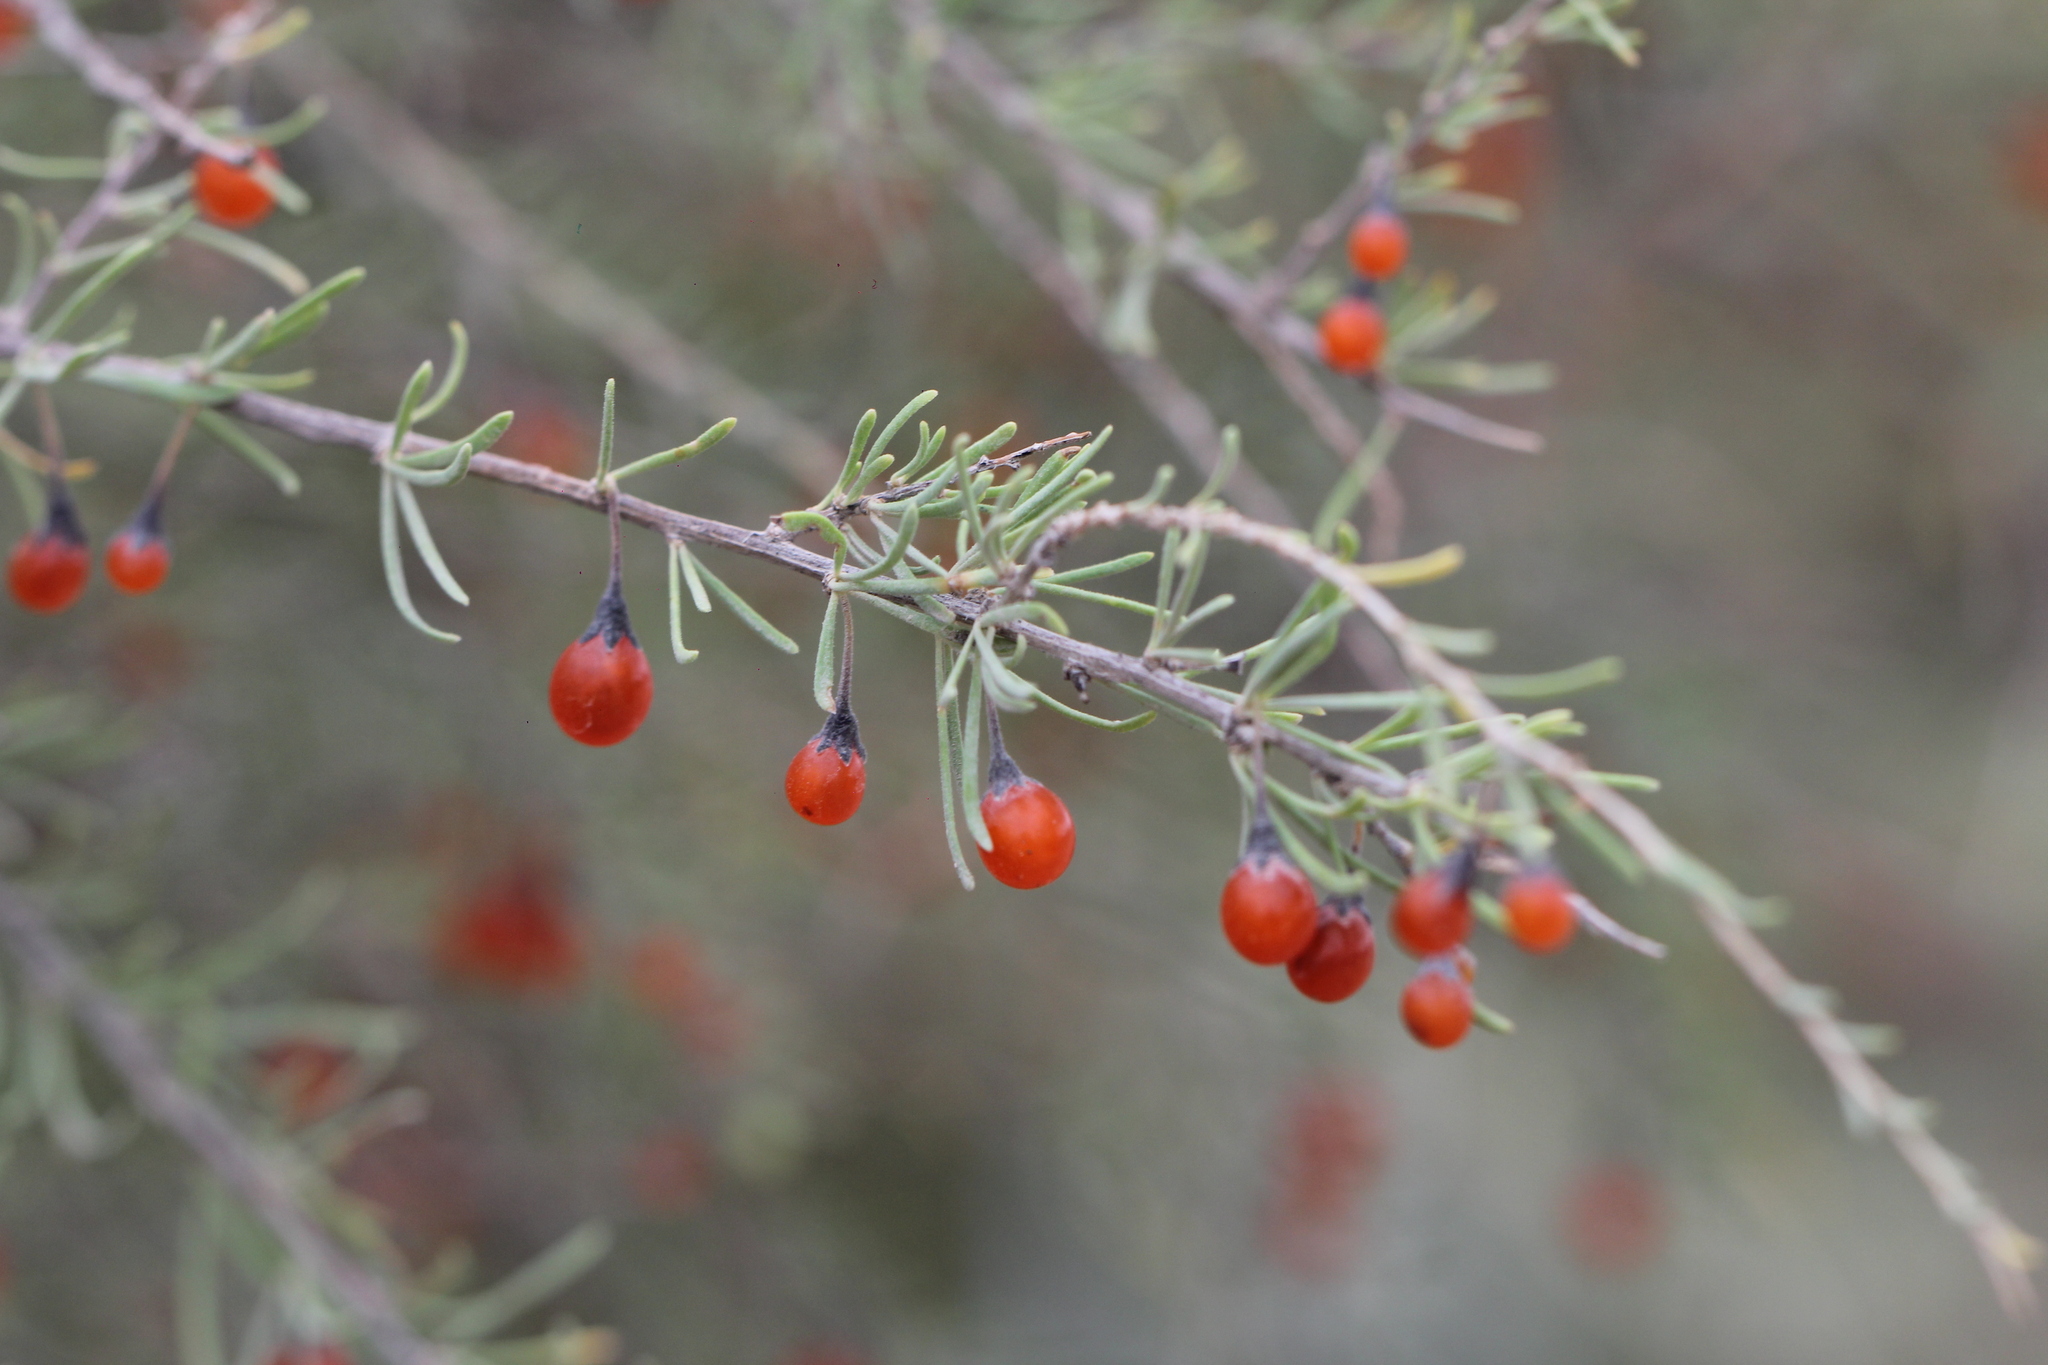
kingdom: Plantae
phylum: Tracheophyta
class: Magnoliopsida
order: Solanales
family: Solanaceae
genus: Lycium
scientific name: Lycium chilense
